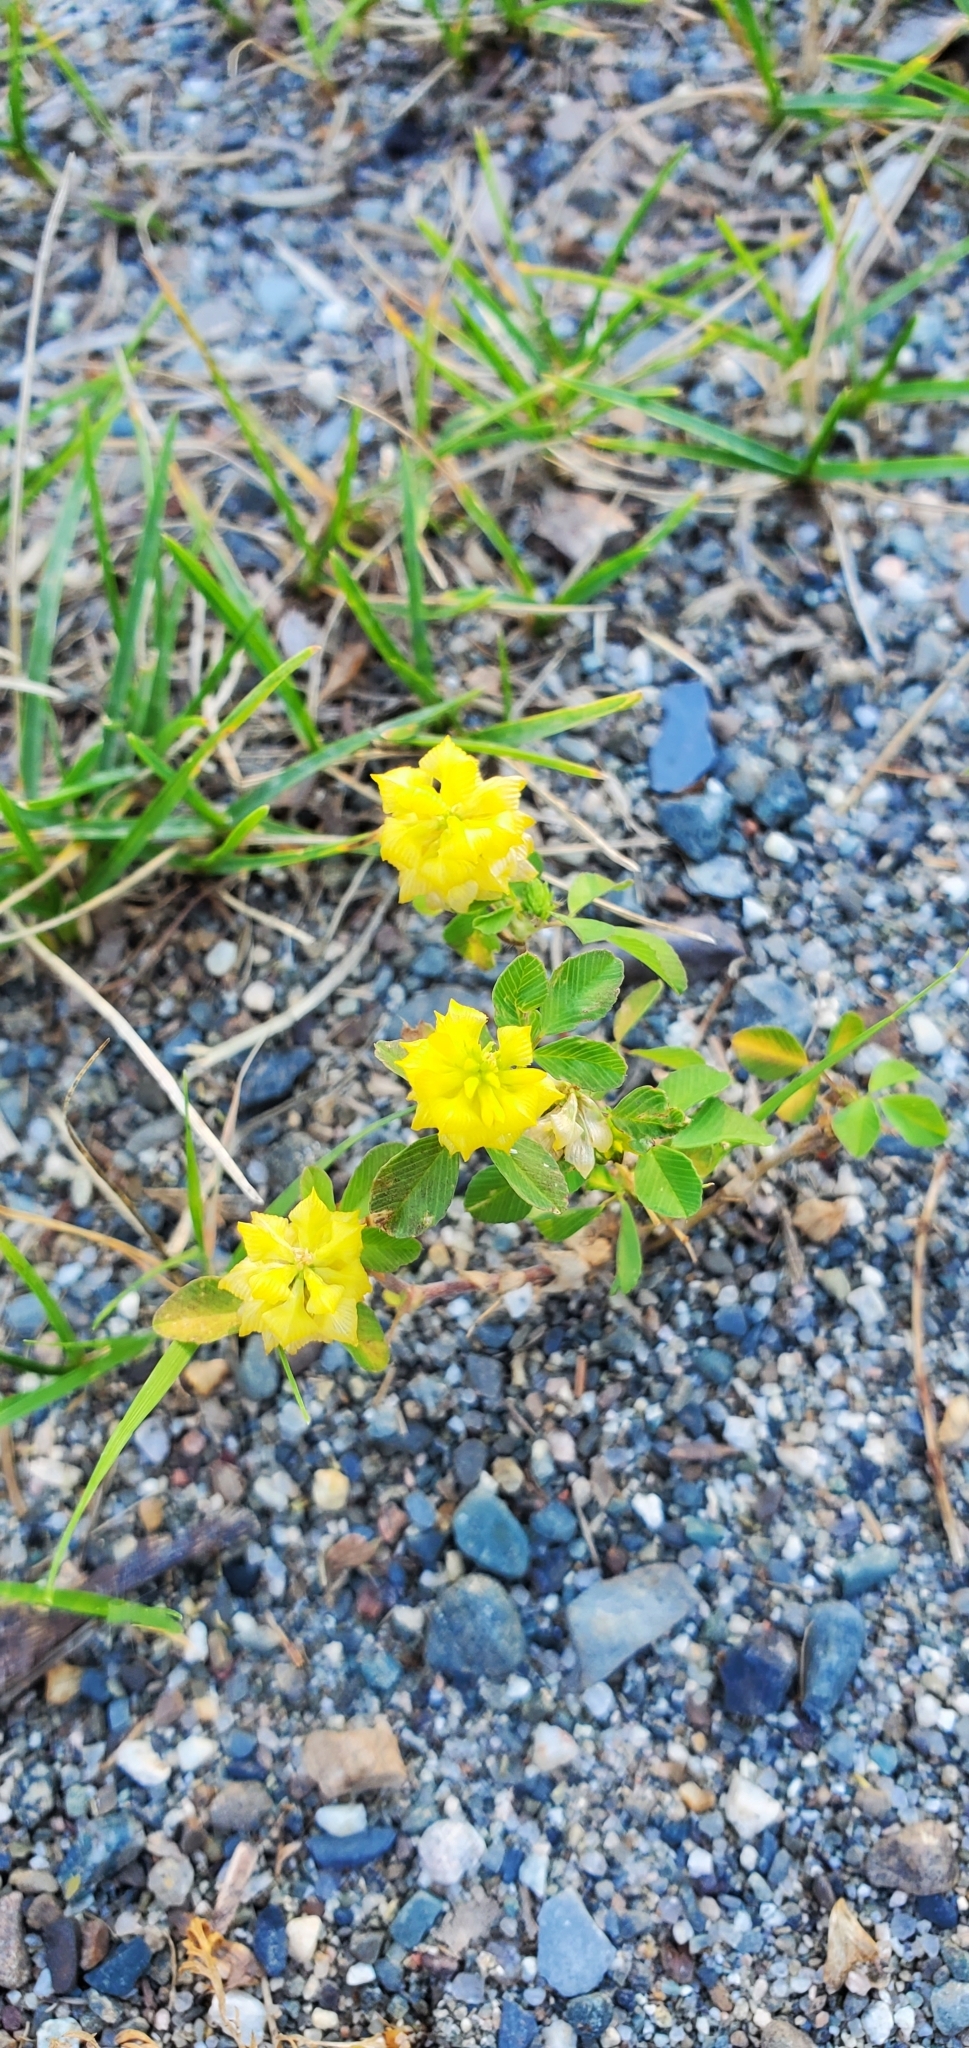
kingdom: Plantae
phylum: Tracheophyta
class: Magnoliopsida
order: Fabales
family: Fabaceae
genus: Trifolium
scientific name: Trifolium campestre
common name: Field clover
